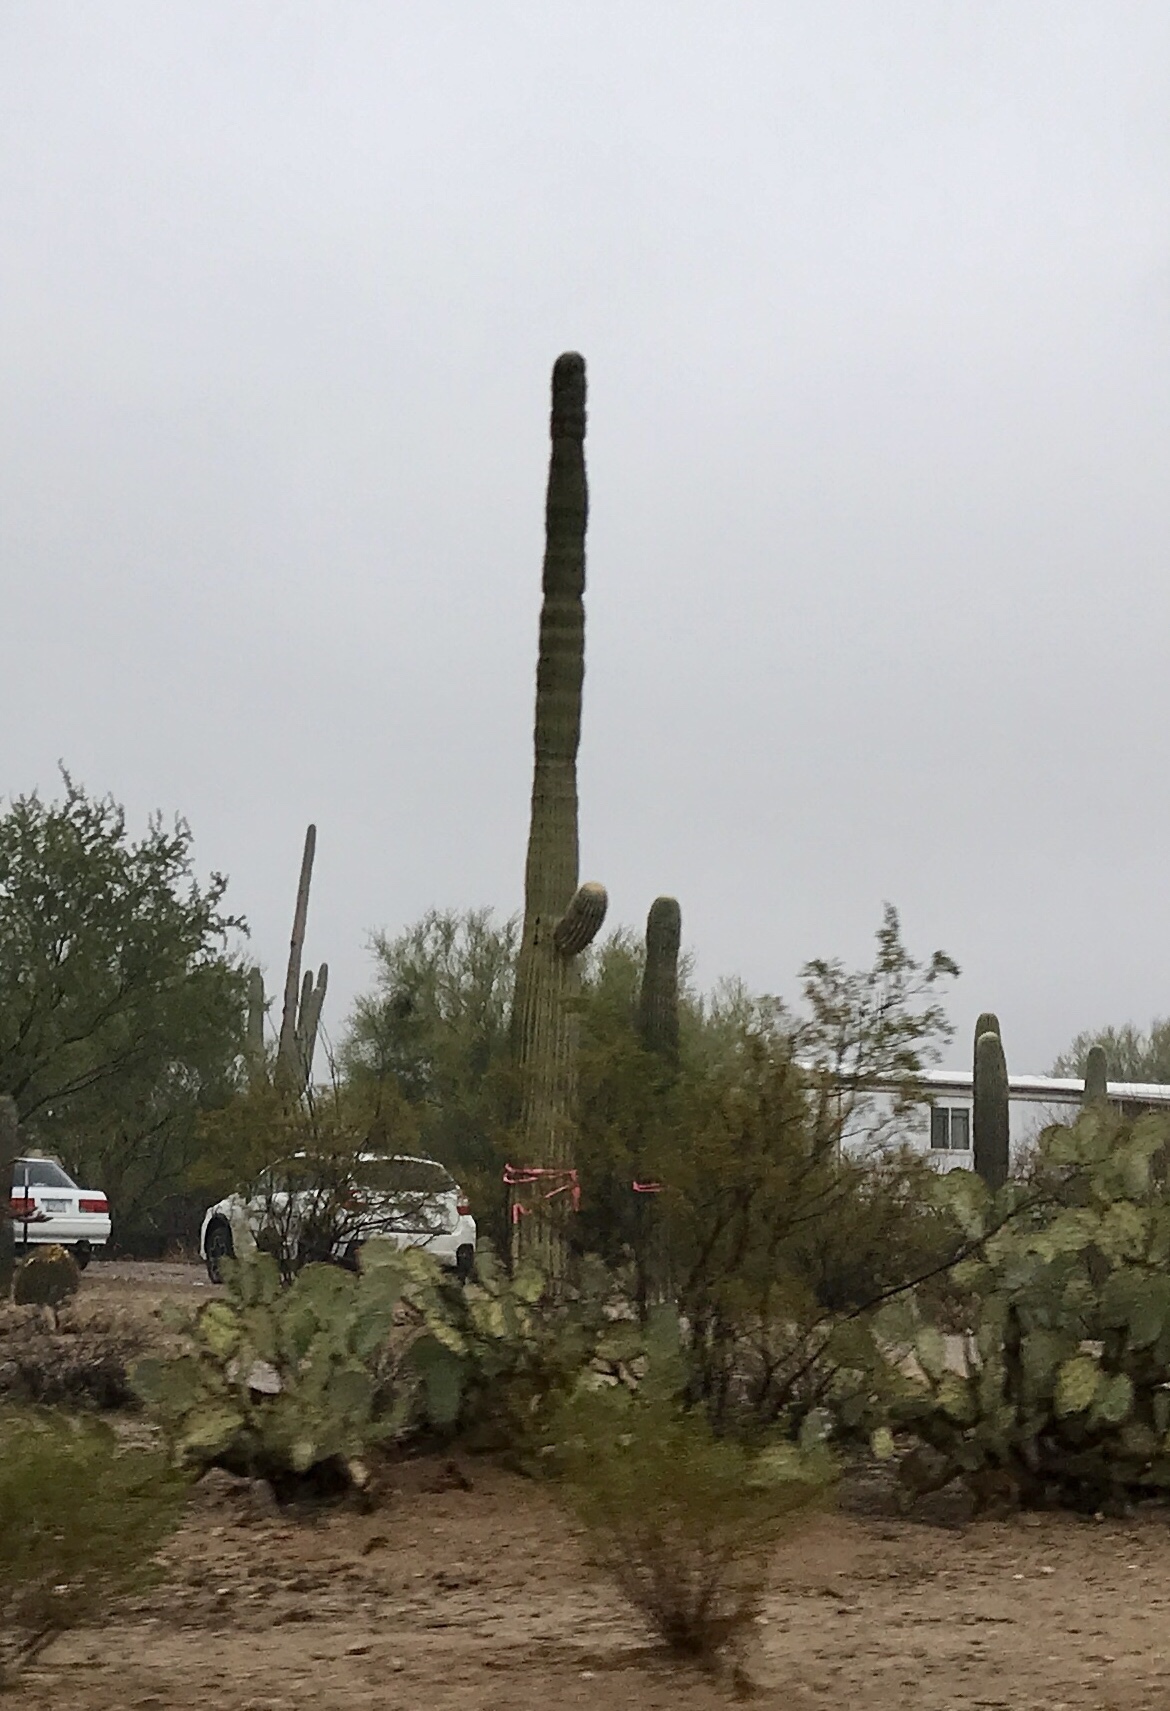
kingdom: Plantae
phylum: Tracheophyta
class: Magnoliopsida
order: Caryophyllales
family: Cactaceae
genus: Carnegiea
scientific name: Carnegiea gigantea
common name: Saguaro
